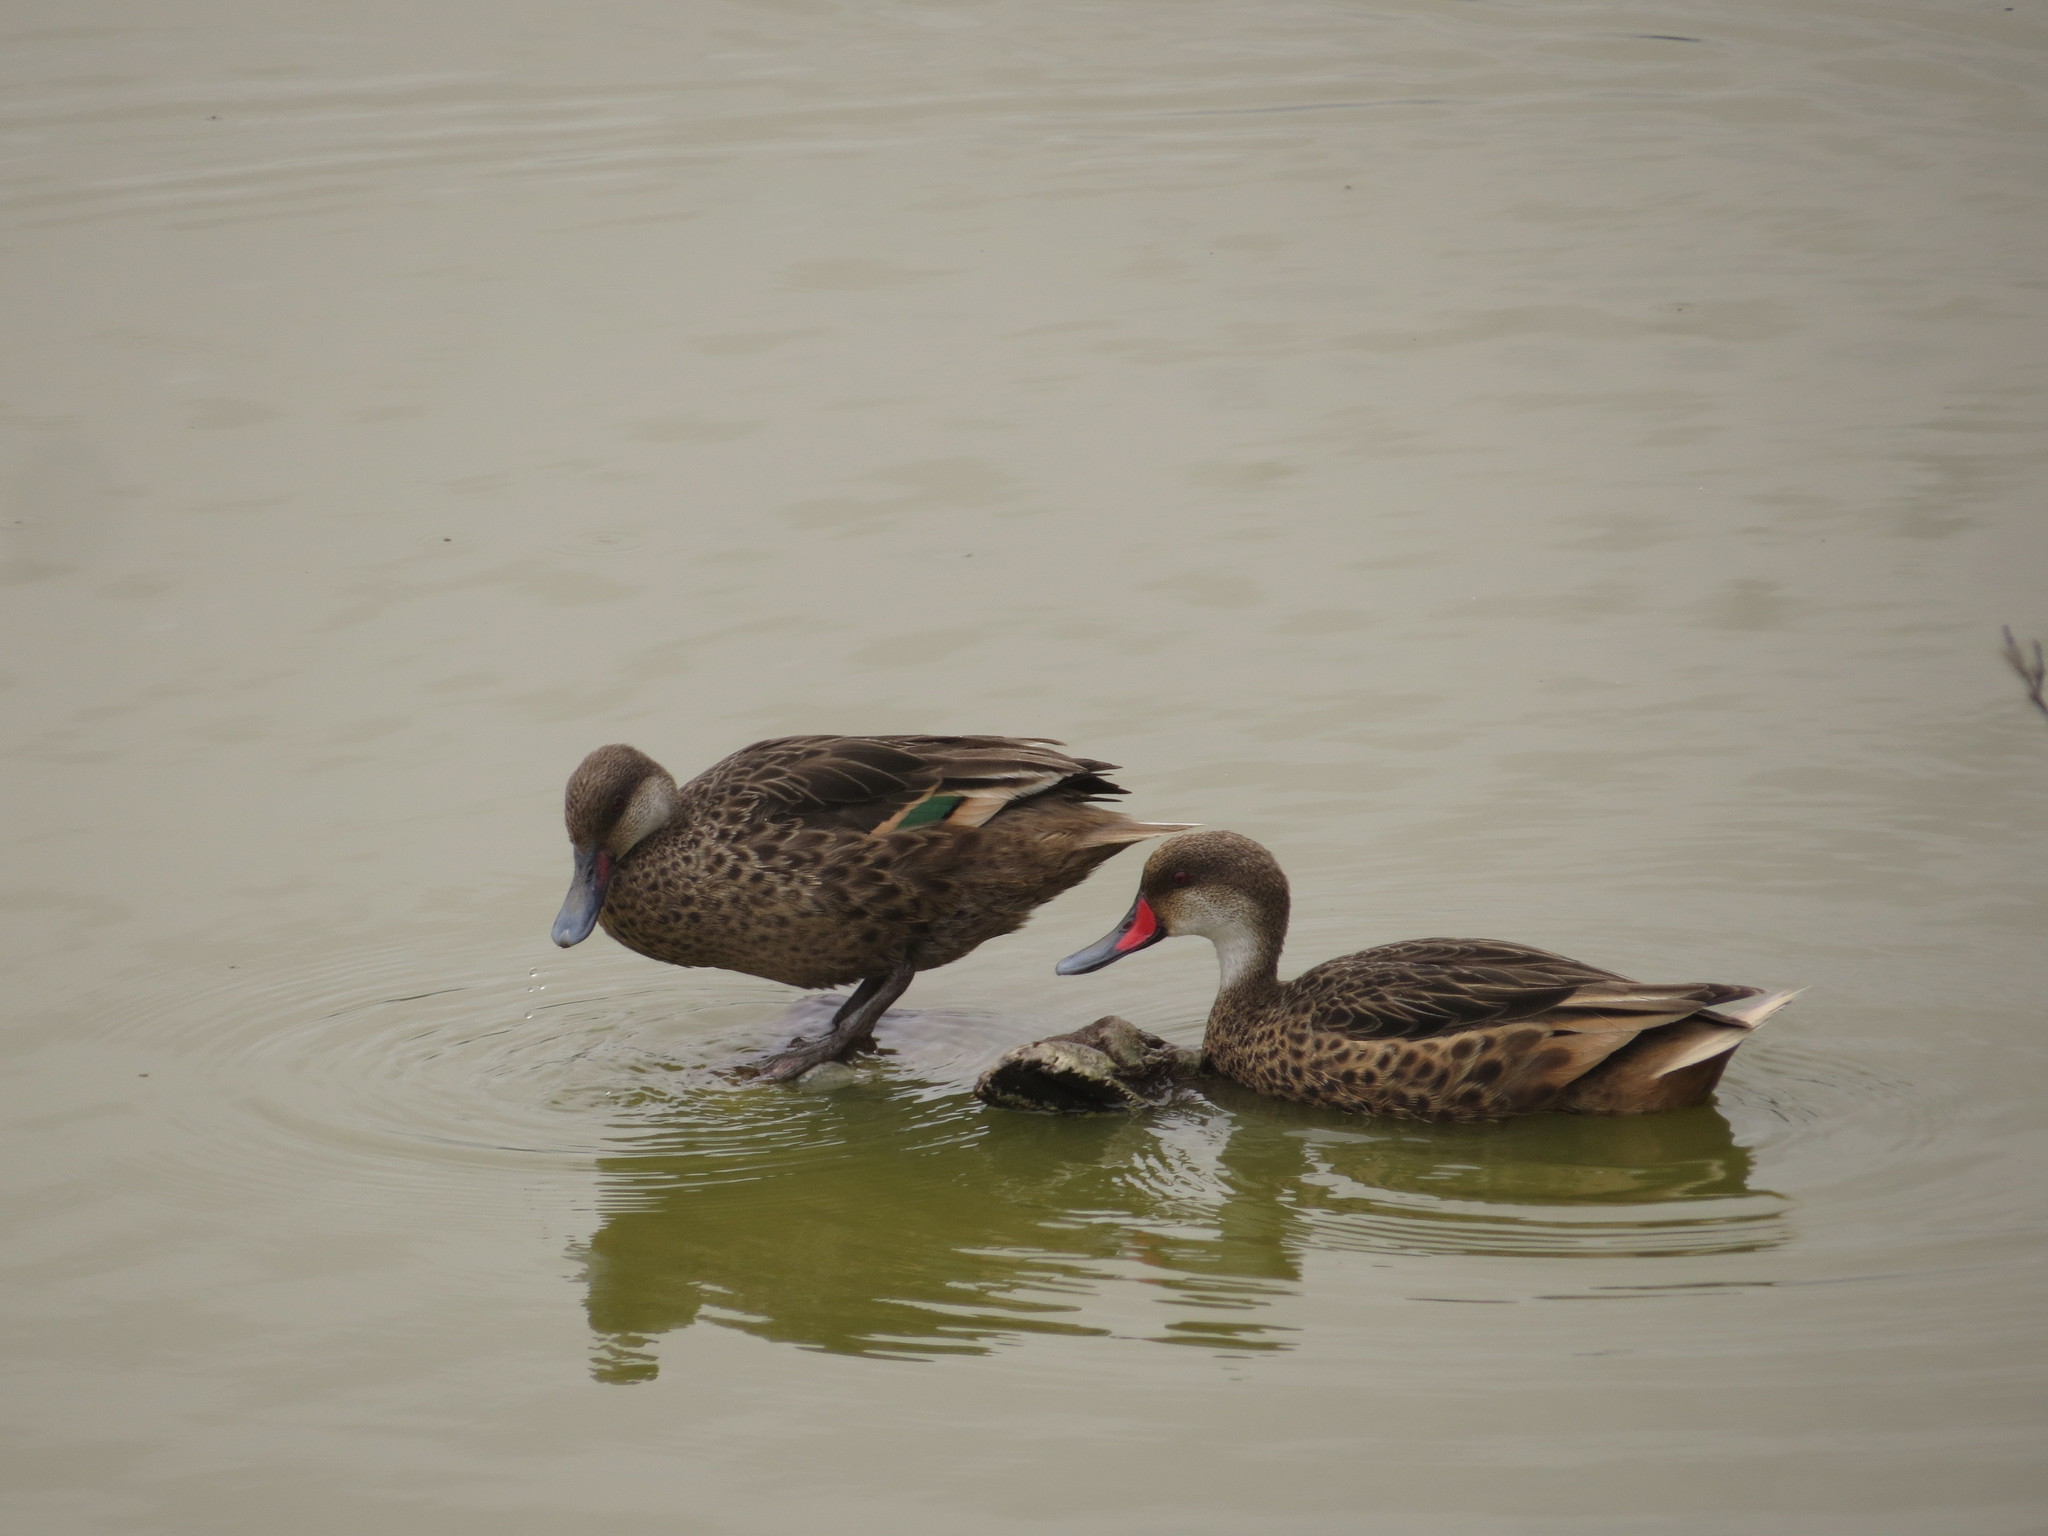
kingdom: Animalia
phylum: Chordata
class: Aves
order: Anseriformes
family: Anatidae
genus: Anas
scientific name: Anas bahamensis
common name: White-cheeked pintail
